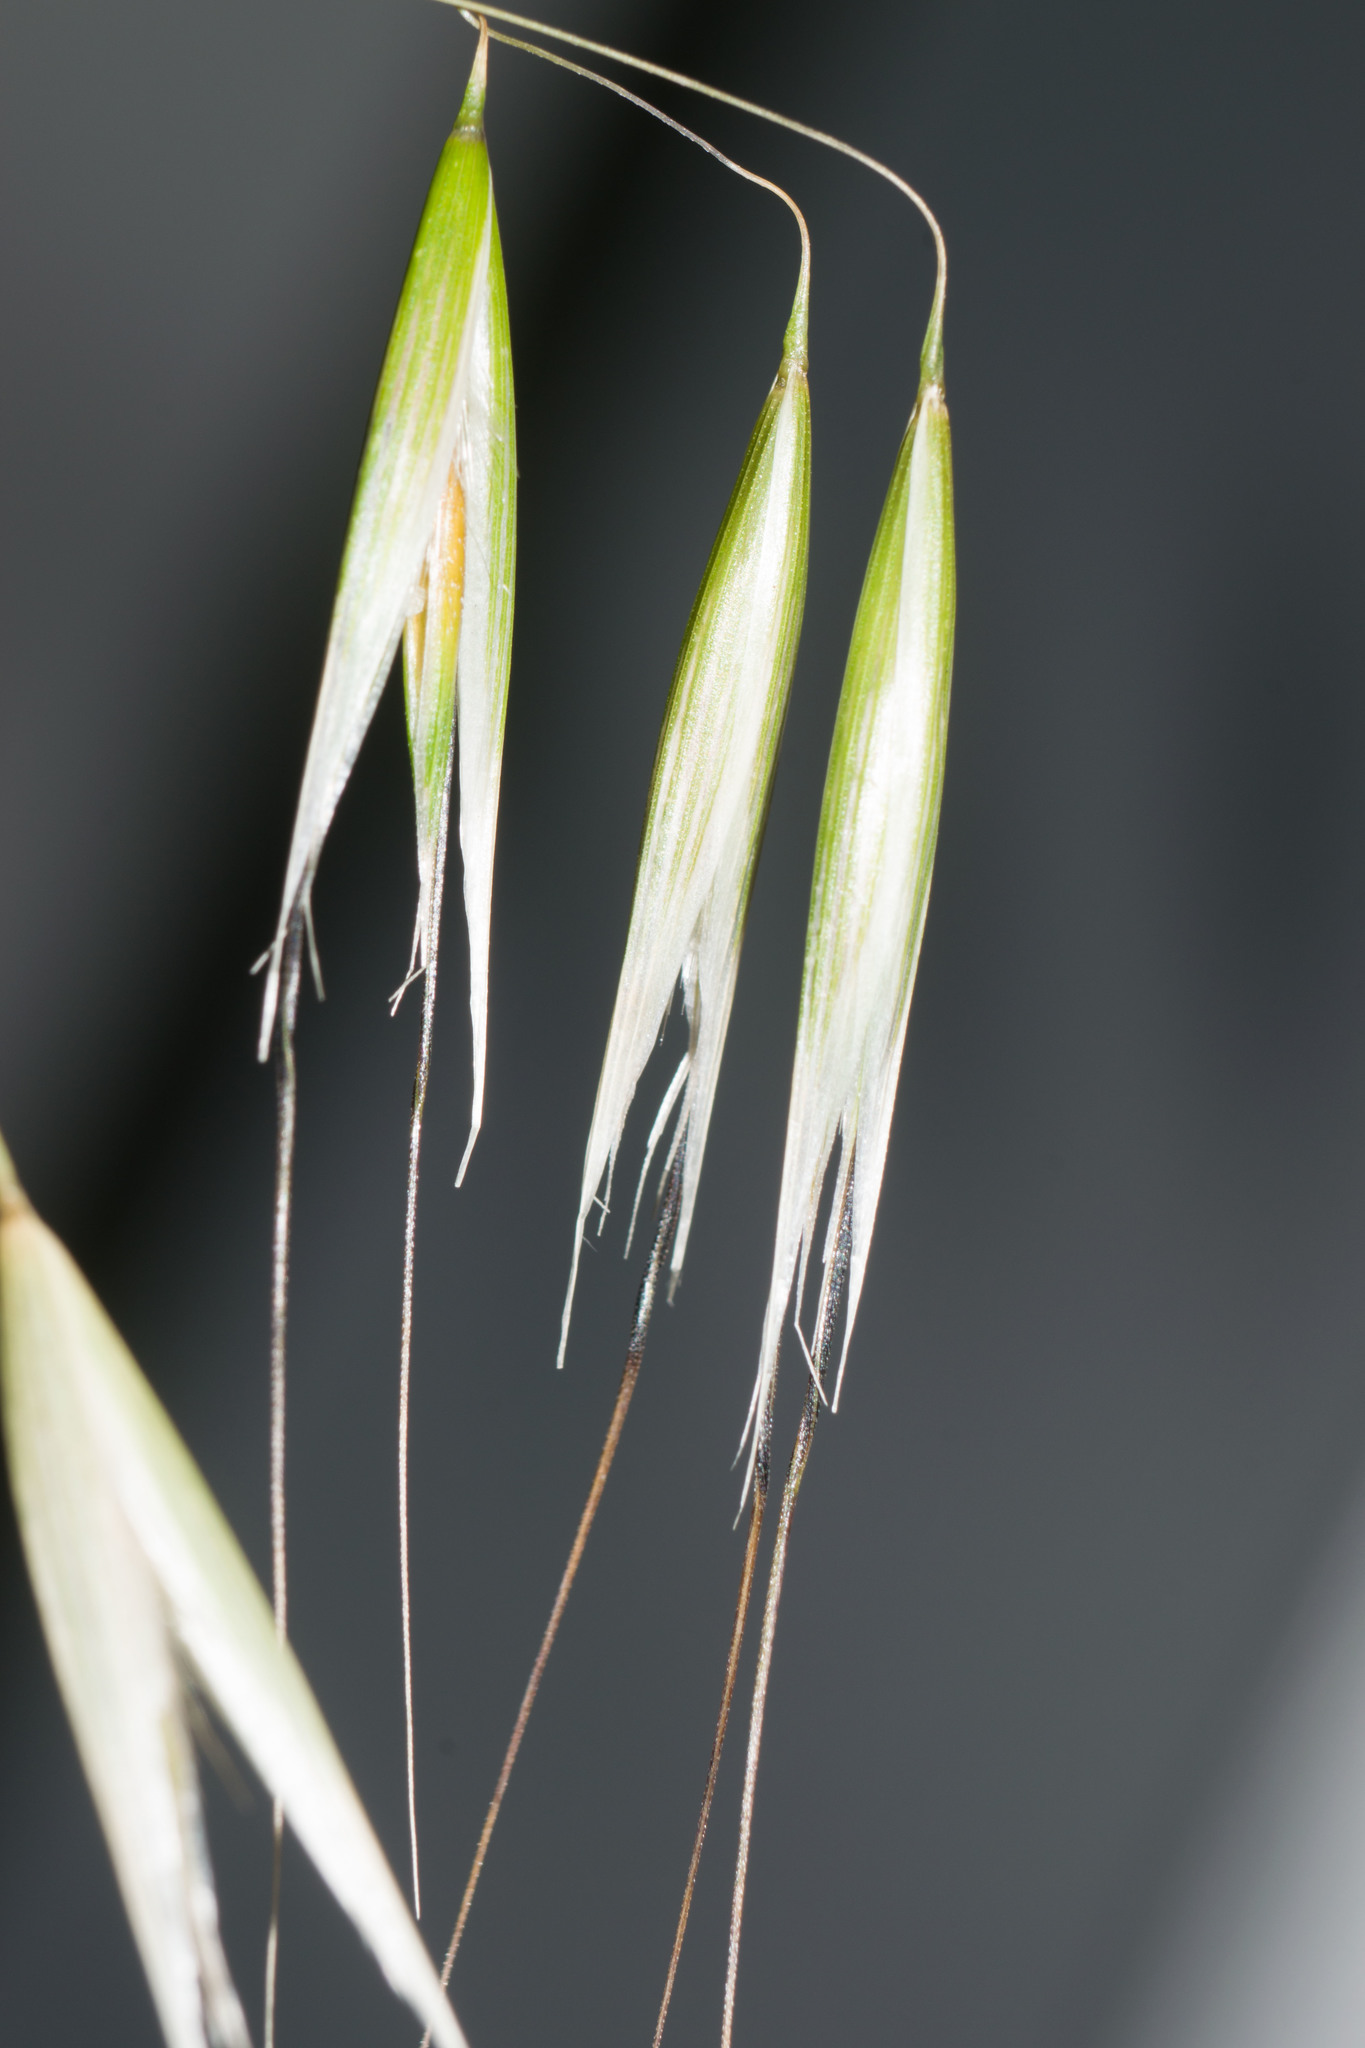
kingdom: Plantae
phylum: Tracheophyta
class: Liliopsida
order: Poales
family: Poaceae
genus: Avena
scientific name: Avena barbata
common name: Slender oat
